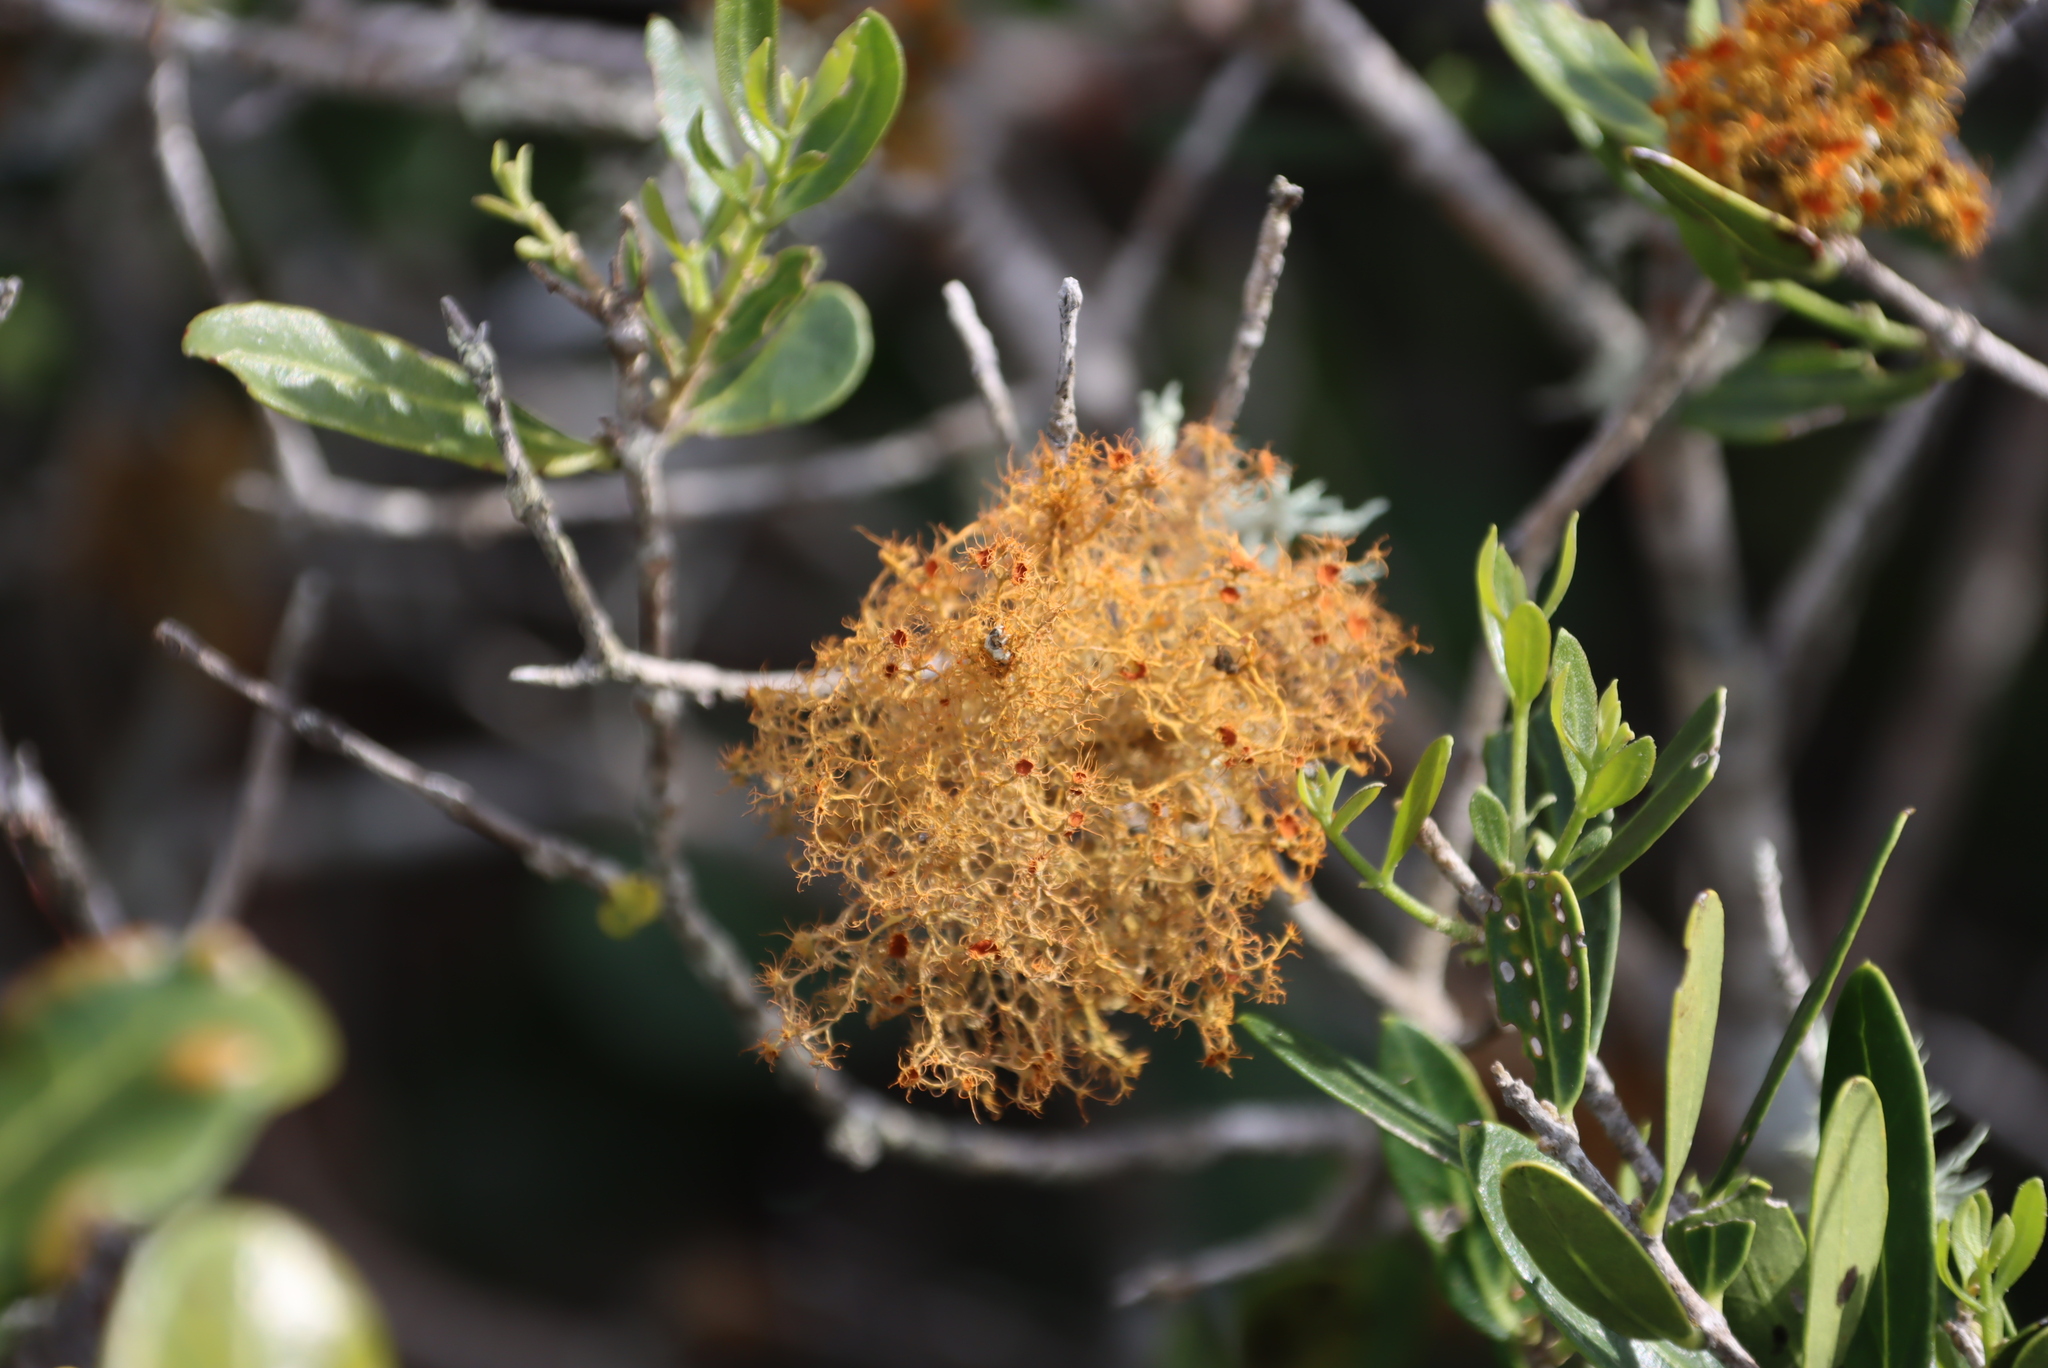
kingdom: Fungi
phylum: Ascomycota
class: Lecanoromycetes
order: Teloschistales
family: Teloschistaceae
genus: Teloschistes
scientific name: Teloschistes capensis
